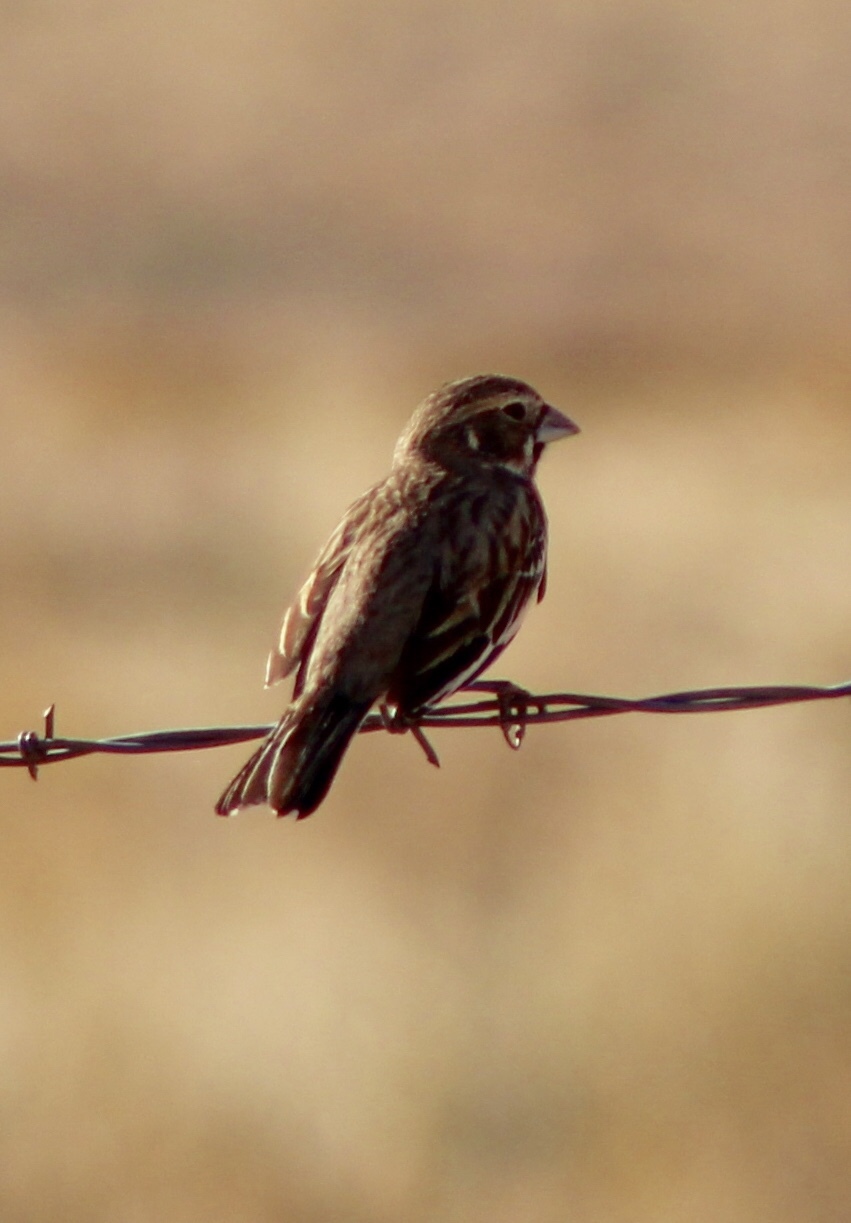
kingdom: Animalia
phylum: Chordata
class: Aves
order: Passeriformes
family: Passerellidae
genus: Calamospiza
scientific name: Calamospiza melanocorys
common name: Lark bunting
